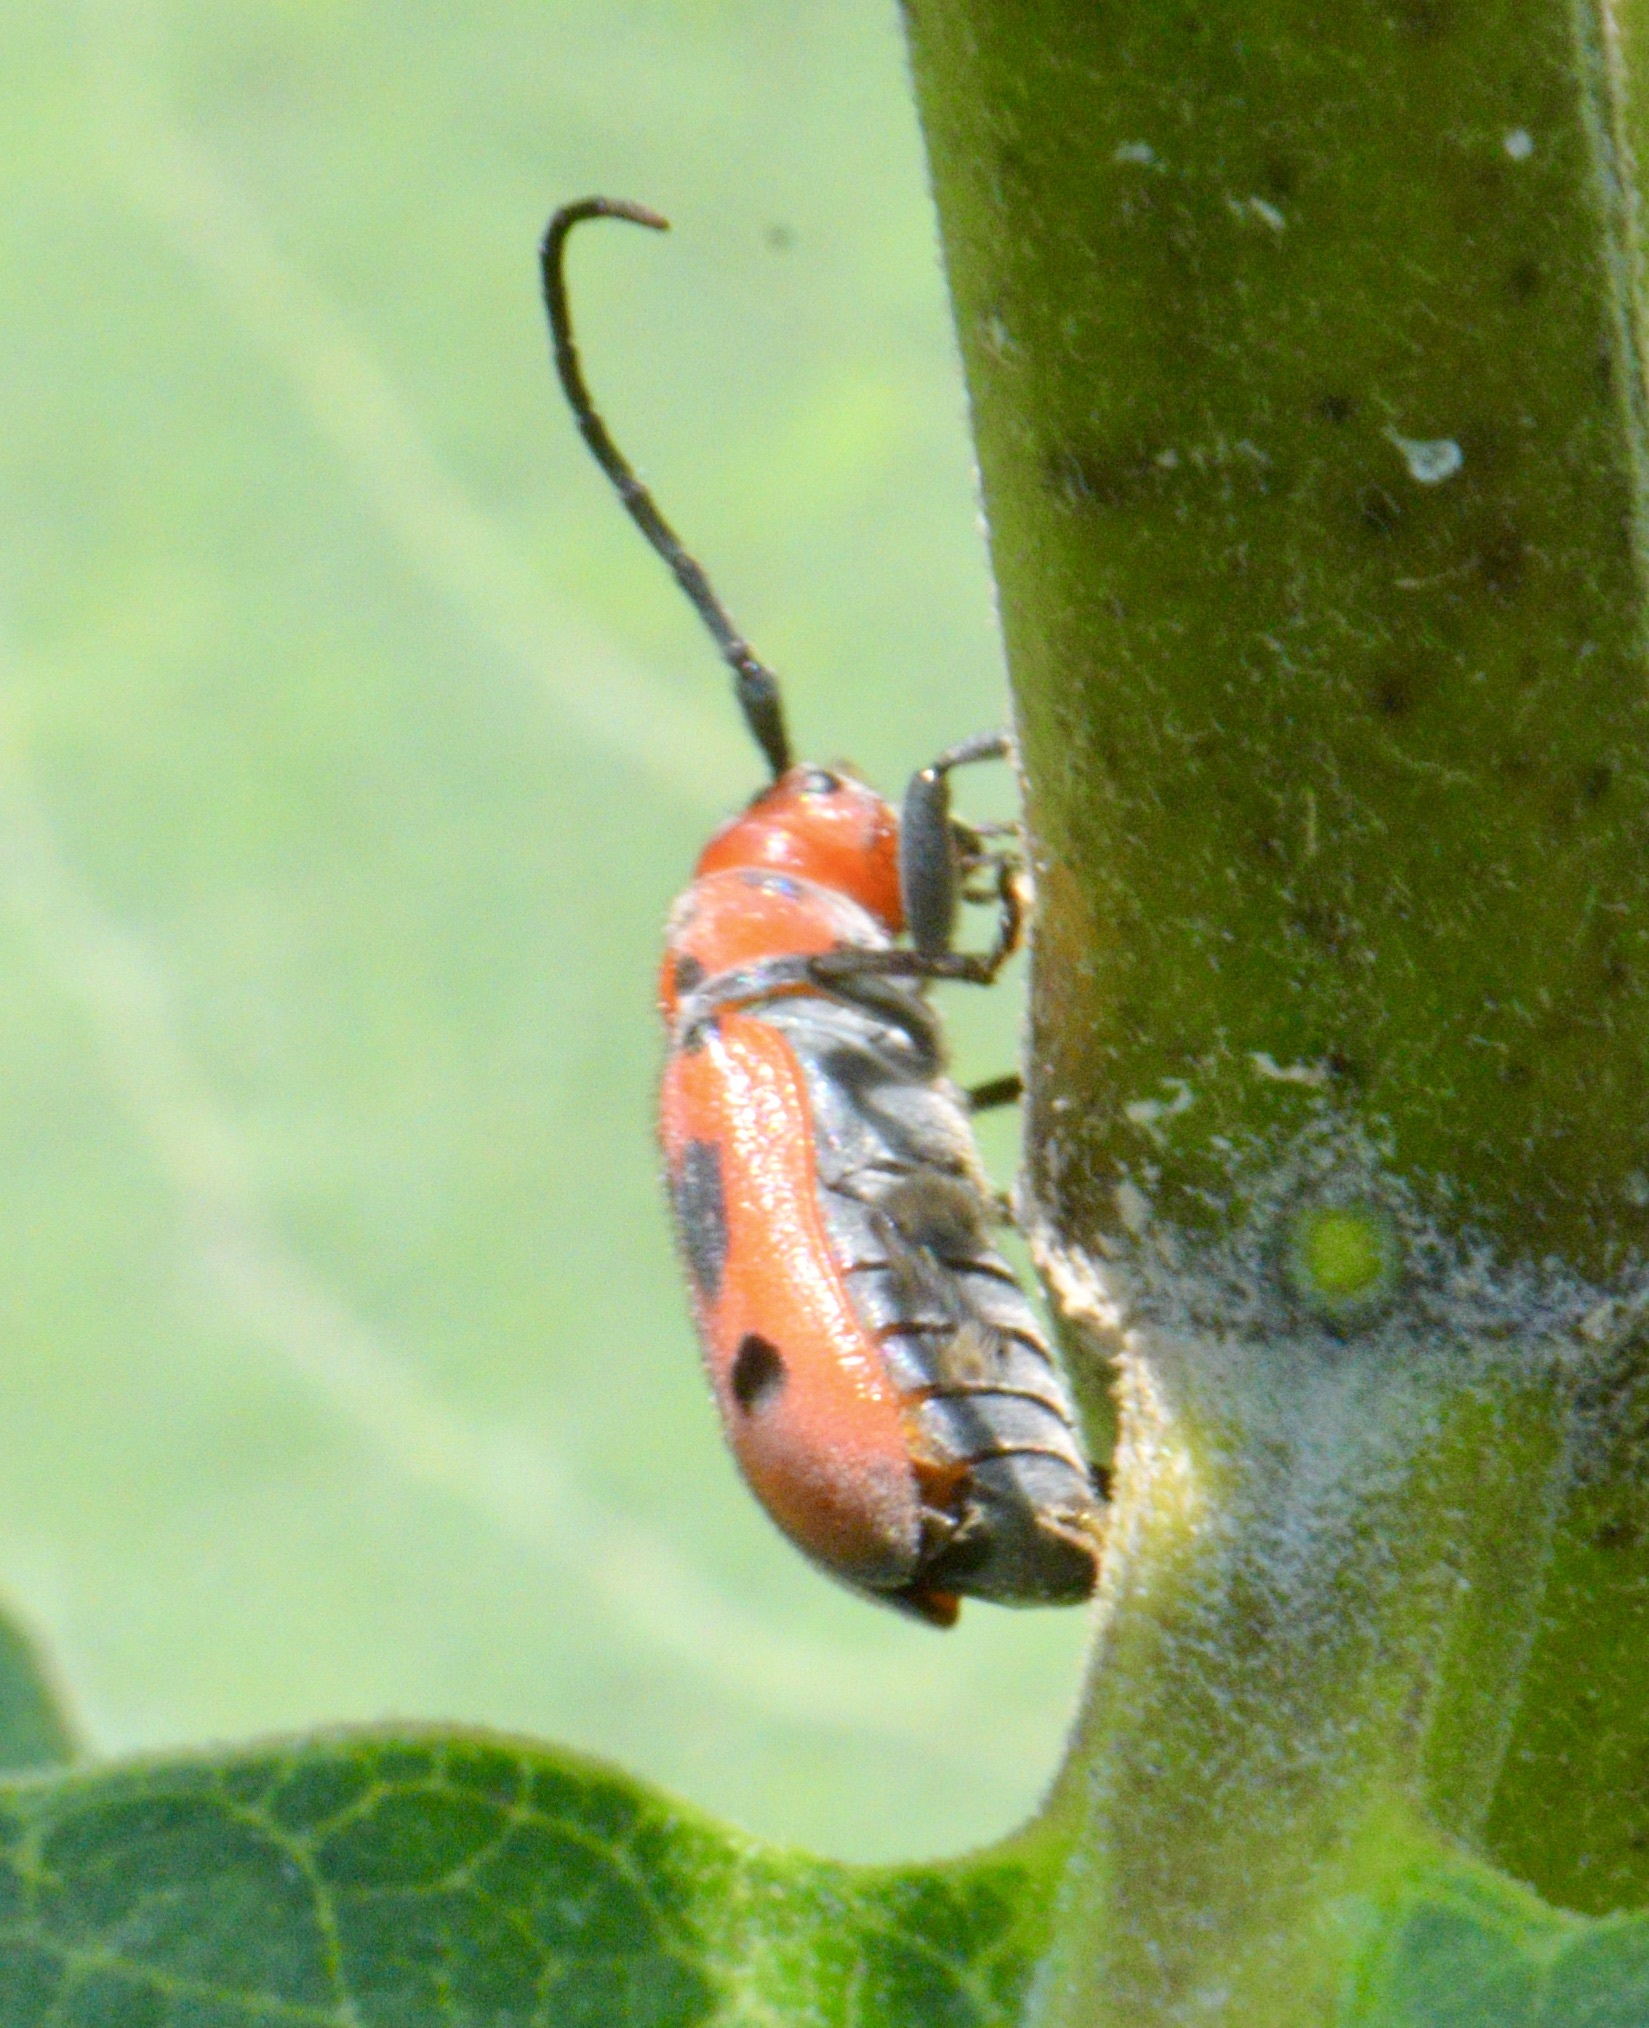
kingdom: Animalia
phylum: Arthropoda
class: Insecta
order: Coleoptera
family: Cerambycidae
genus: Tetraopes
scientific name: Tetraopes tetrophthalmus
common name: Red milkweed beetle
